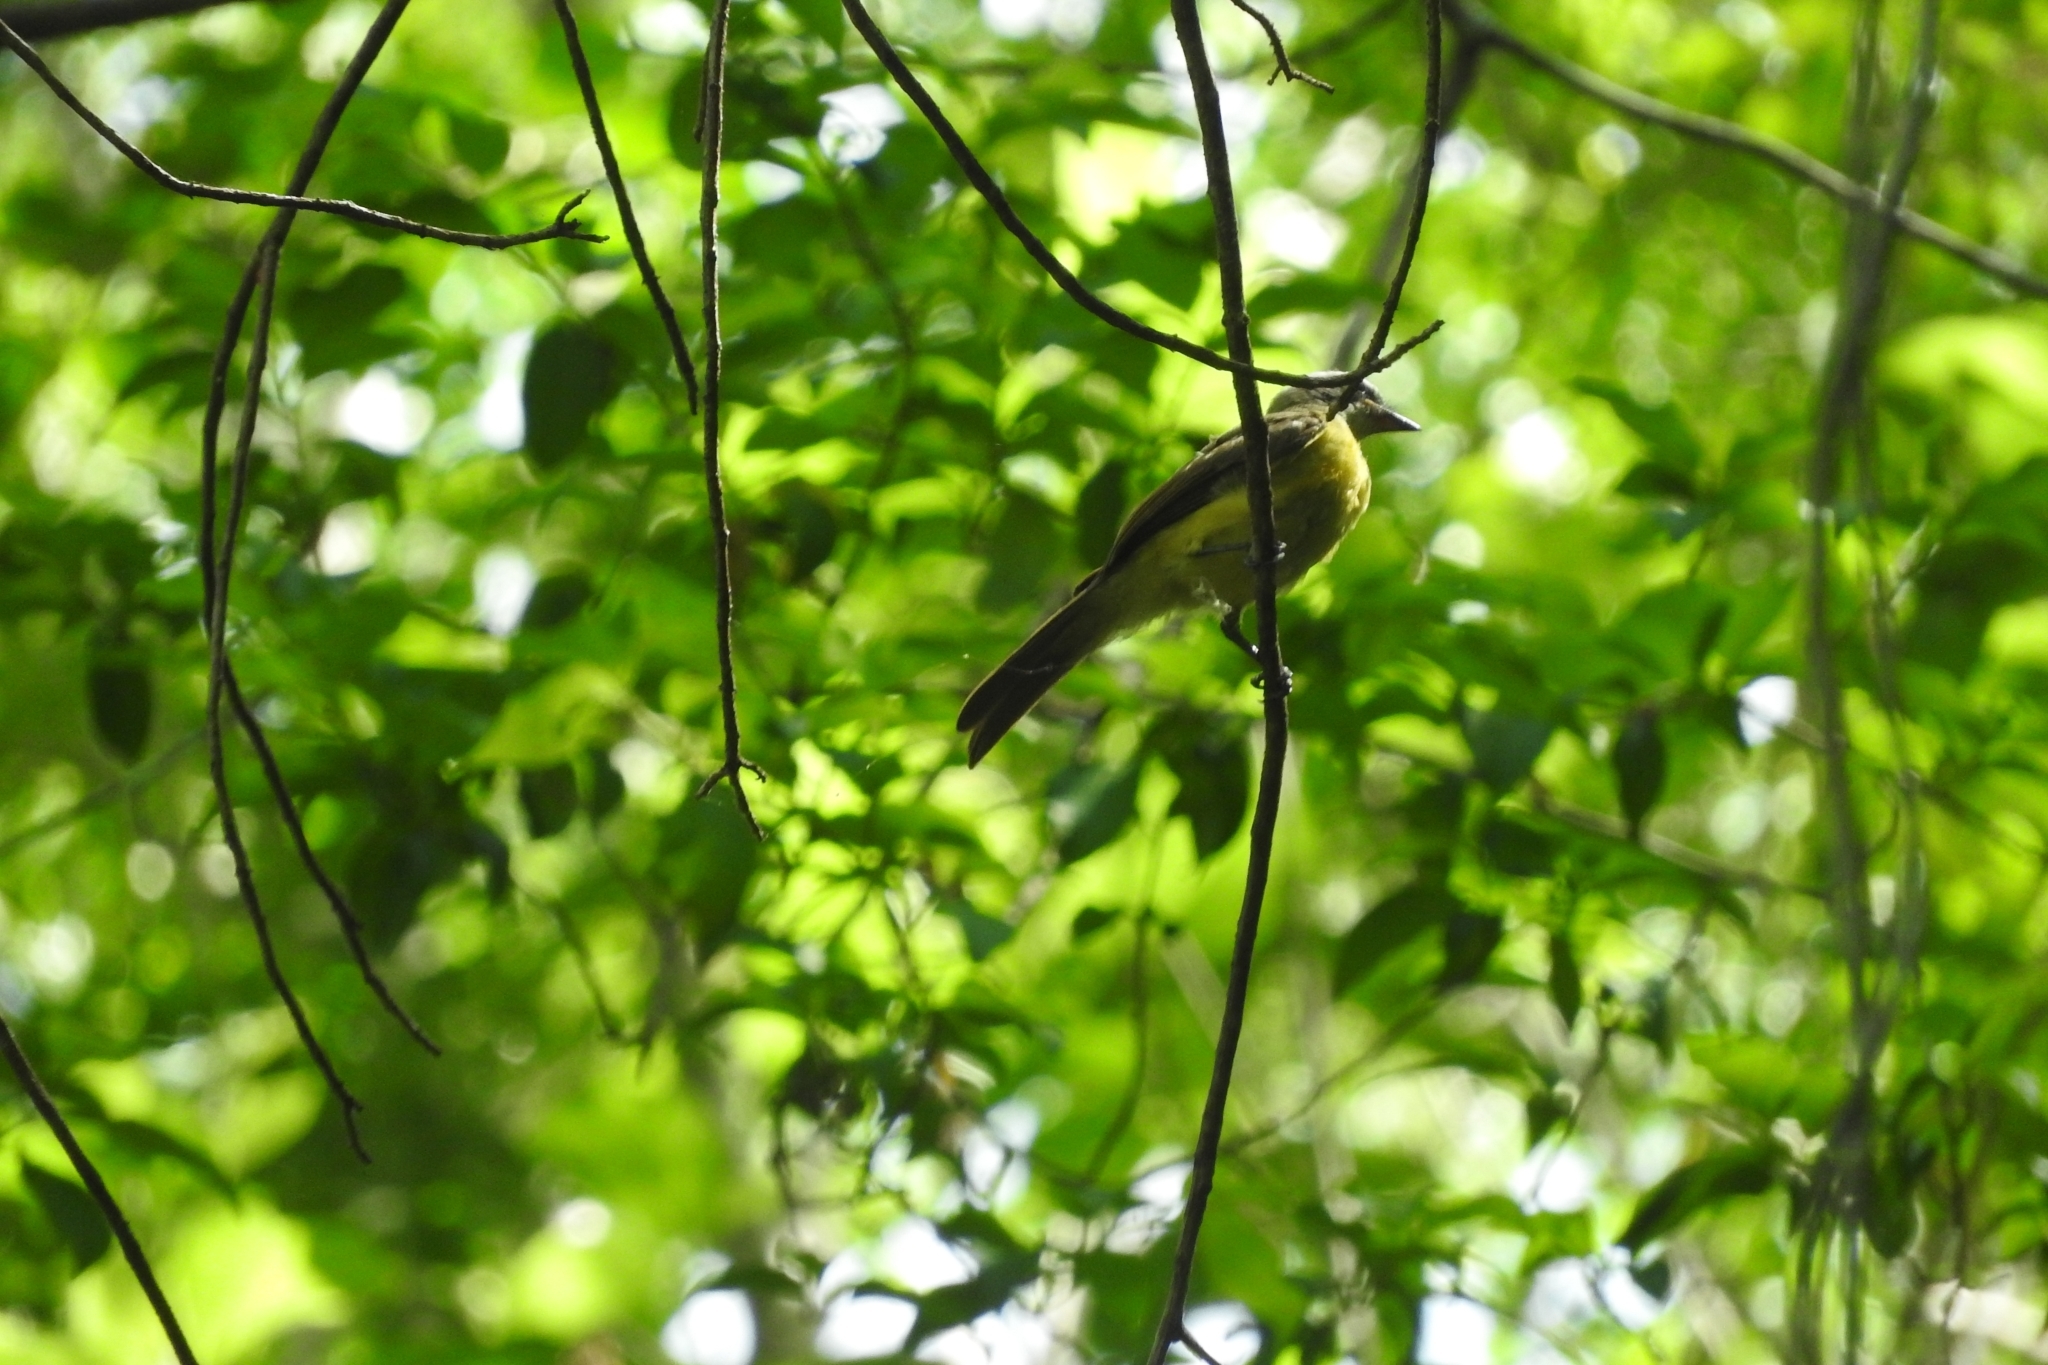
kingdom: Animalia
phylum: Chordata
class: Aves
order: Passeriformes
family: Thraupidae
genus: Eucometis
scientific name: Eucometis penicillata
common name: Grey-headed tanager
